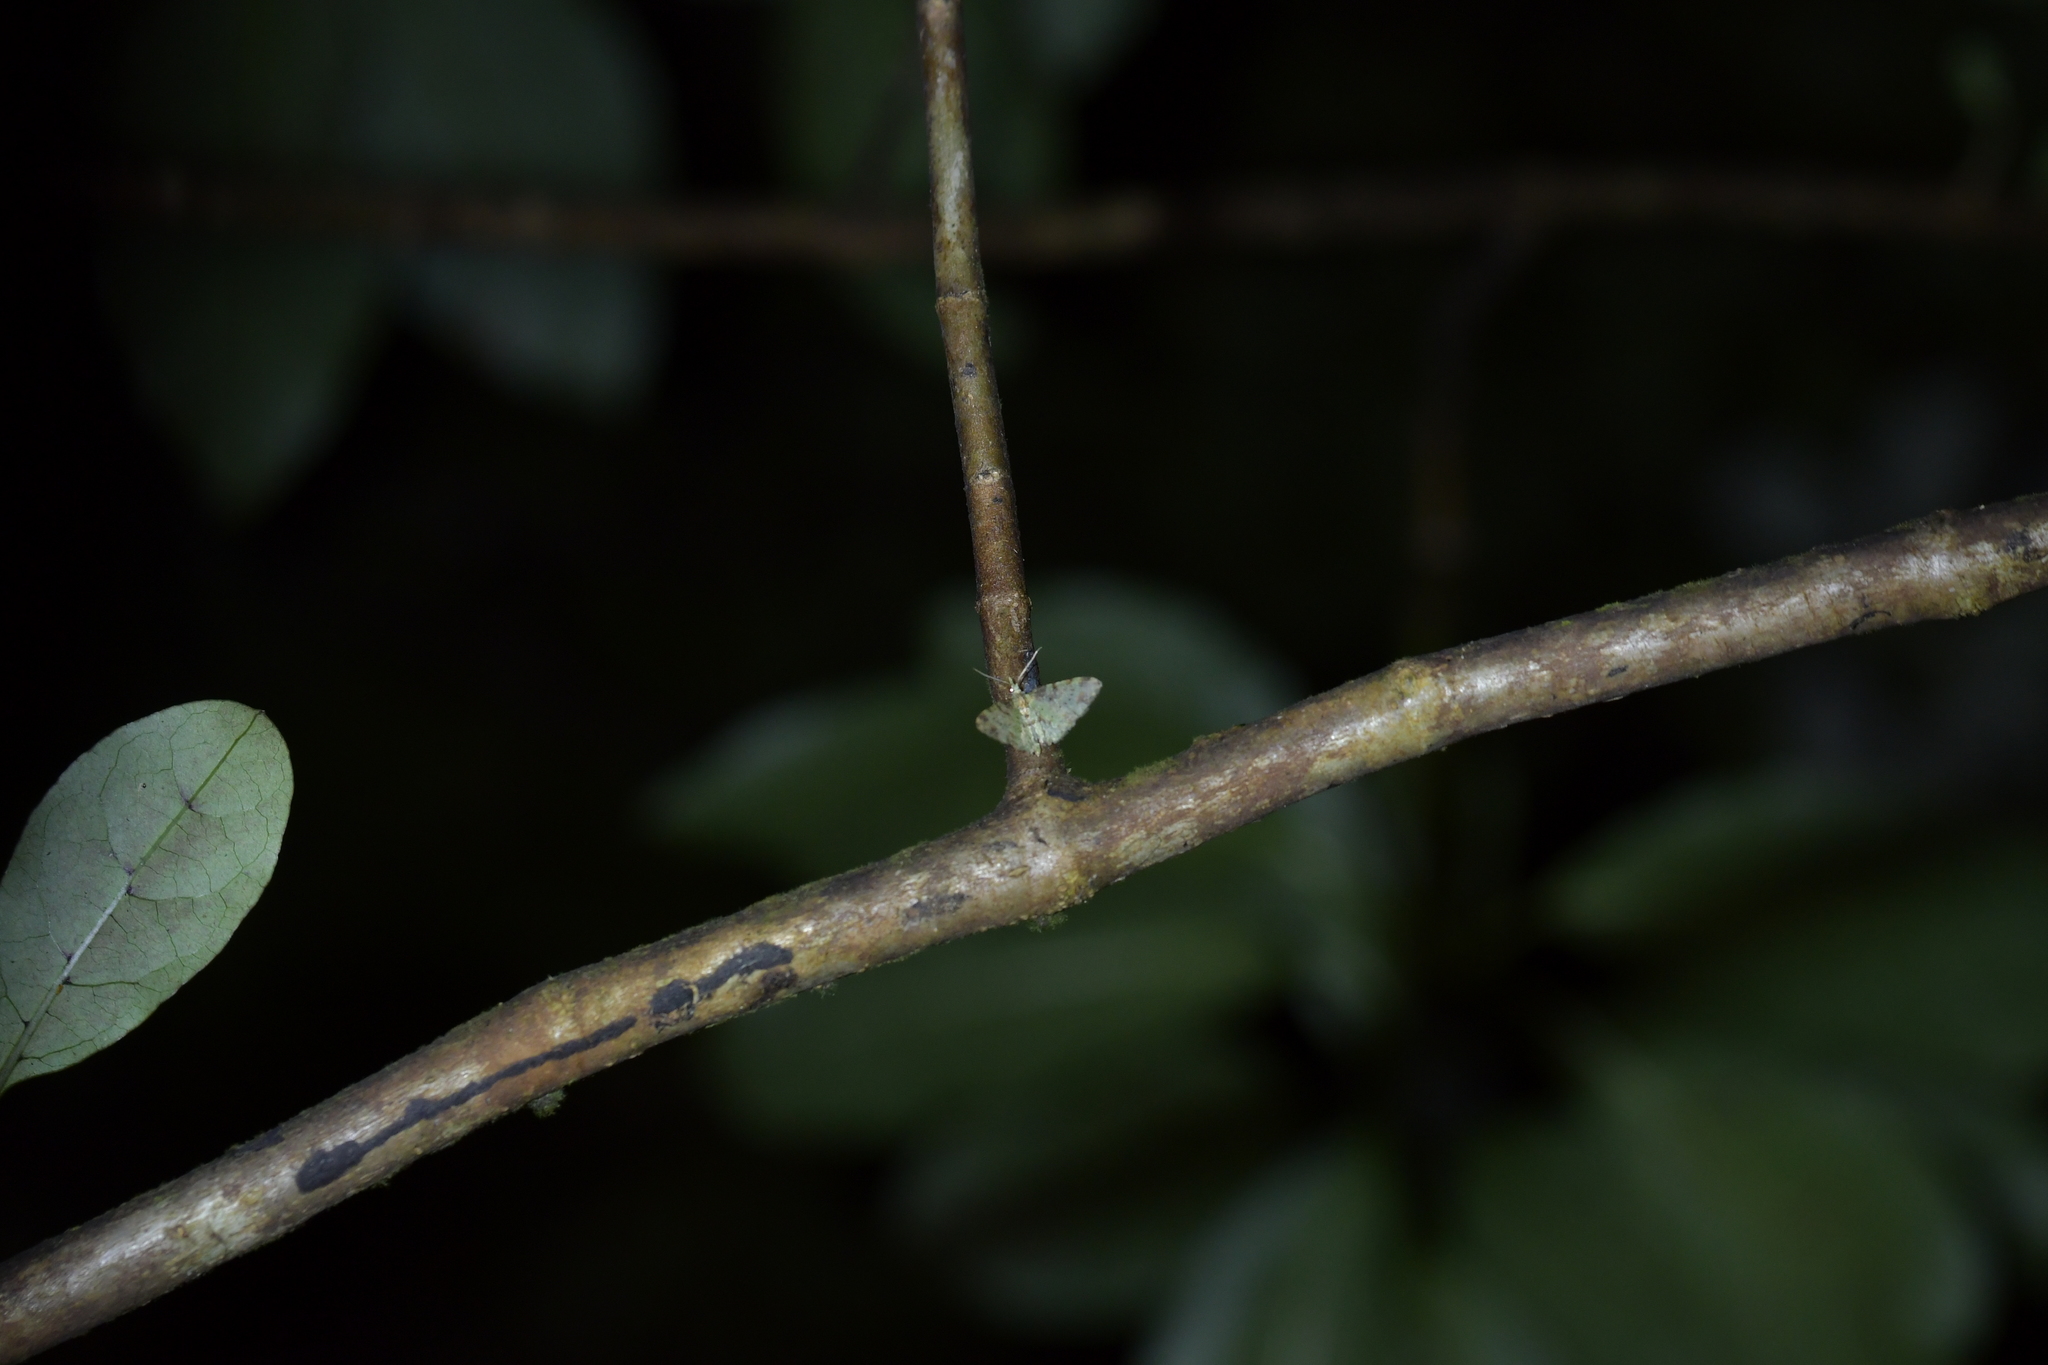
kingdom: Animalia
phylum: Arthropoda
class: Insecta
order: Lepidoptera
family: Geometridae
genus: Pasiphila
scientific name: Pasiphila plinthina
